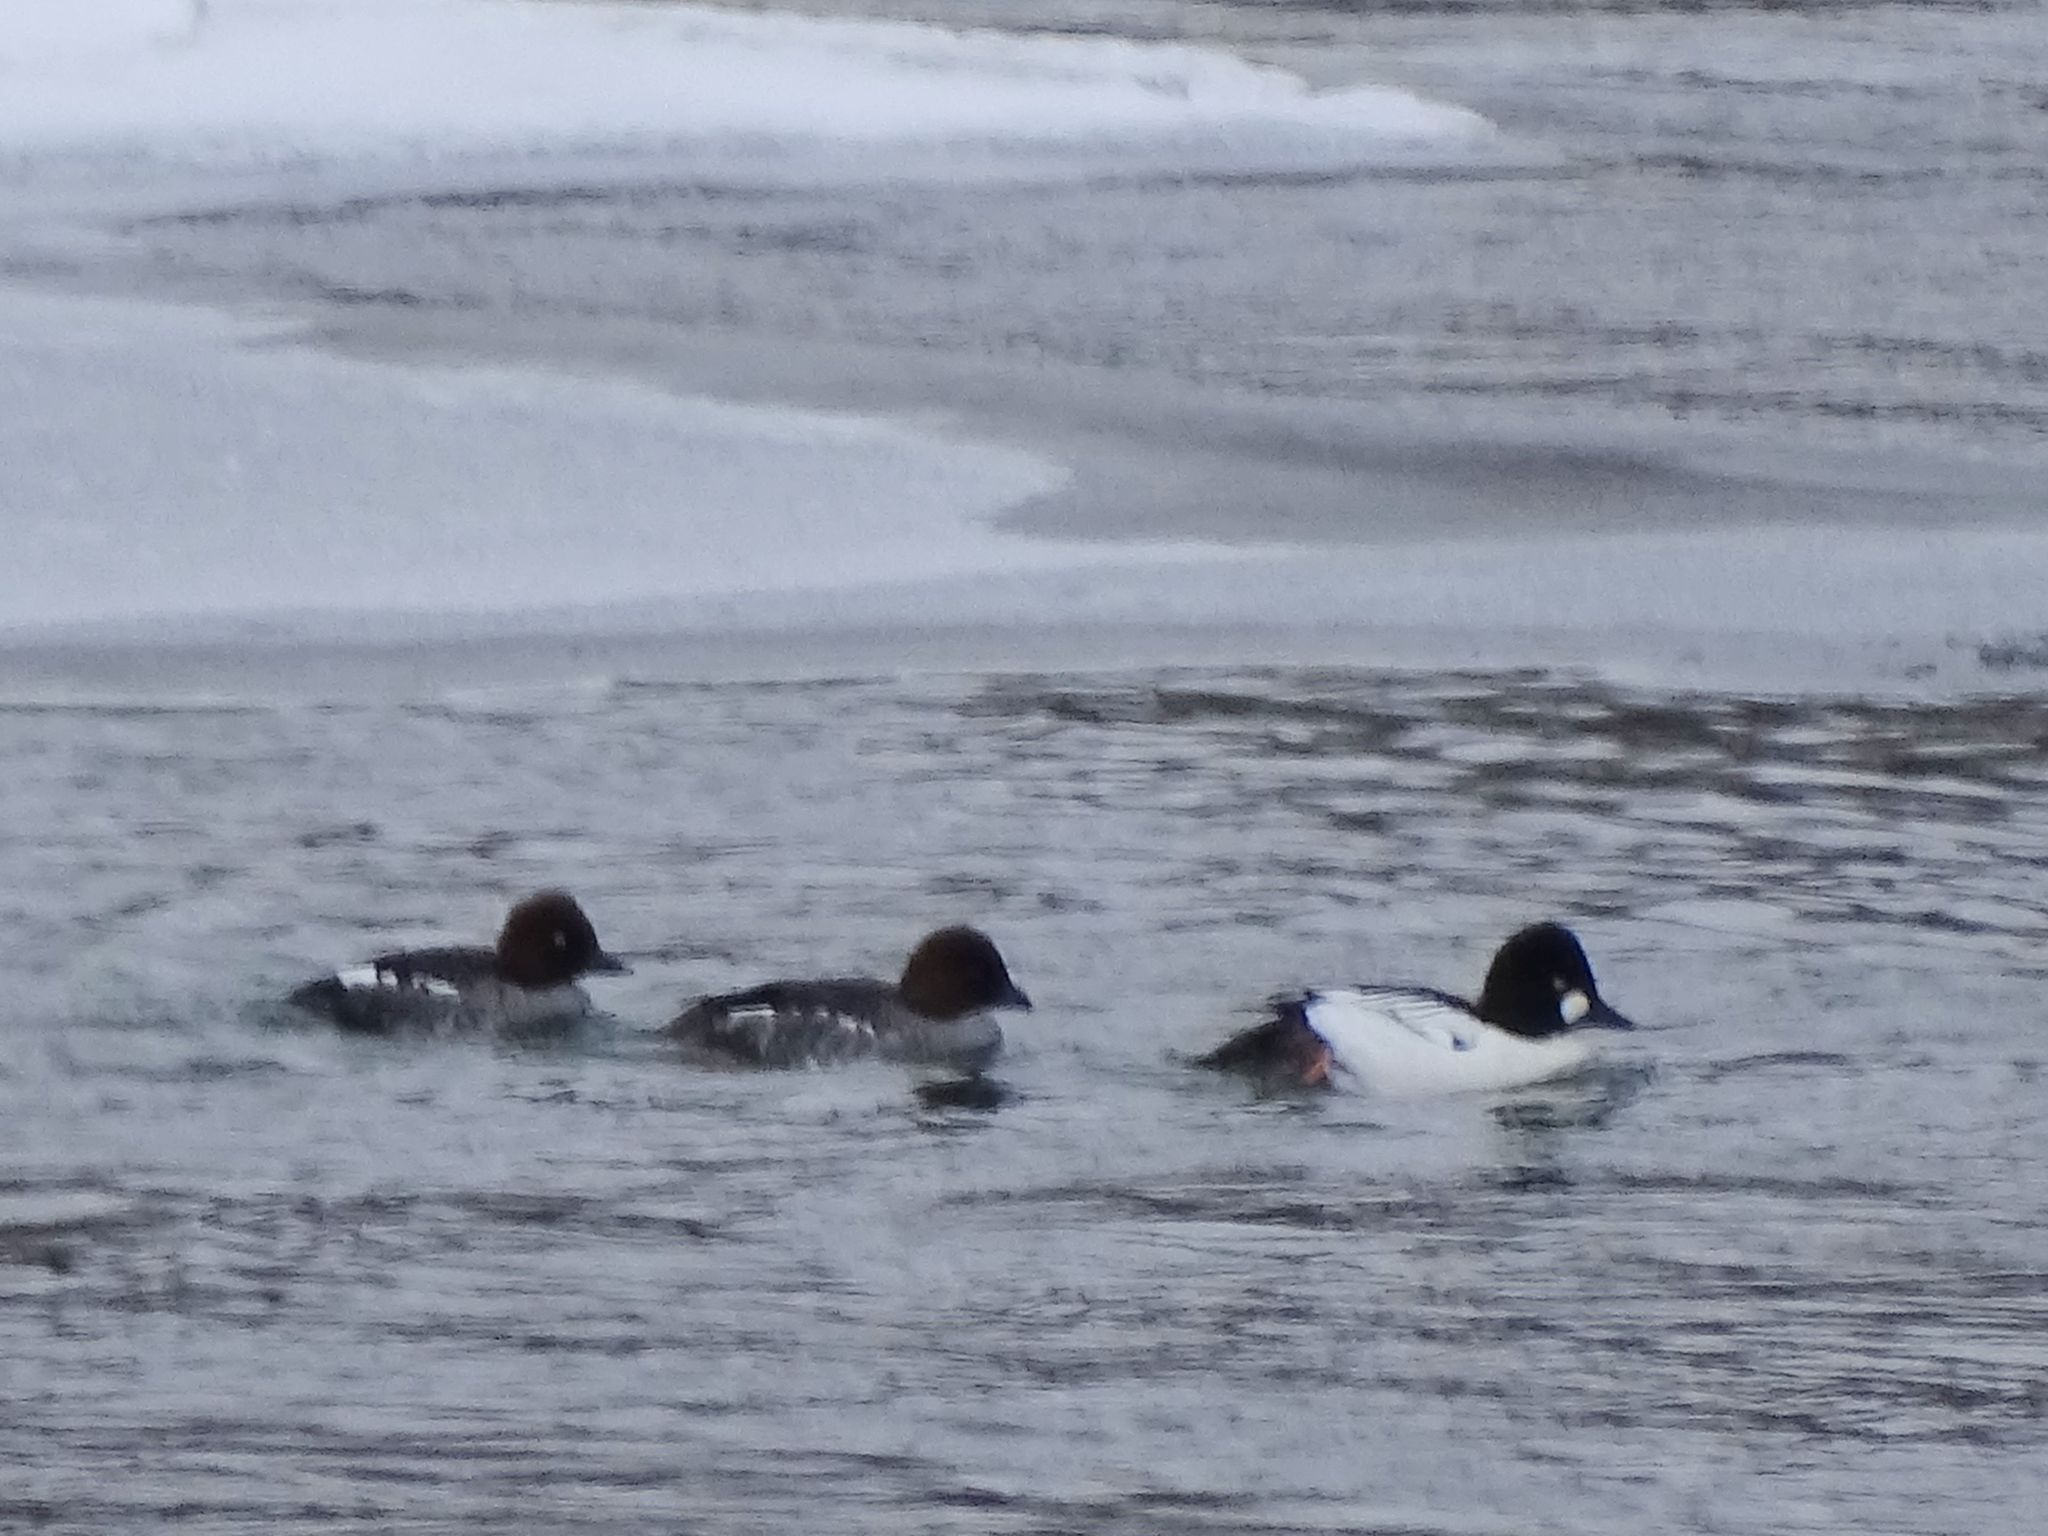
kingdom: Animalia
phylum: Chordata
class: Aves
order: Anseriformes
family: Anatidae
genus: Bucephala
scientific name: Bucephala clangula
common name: Common goldeneye
